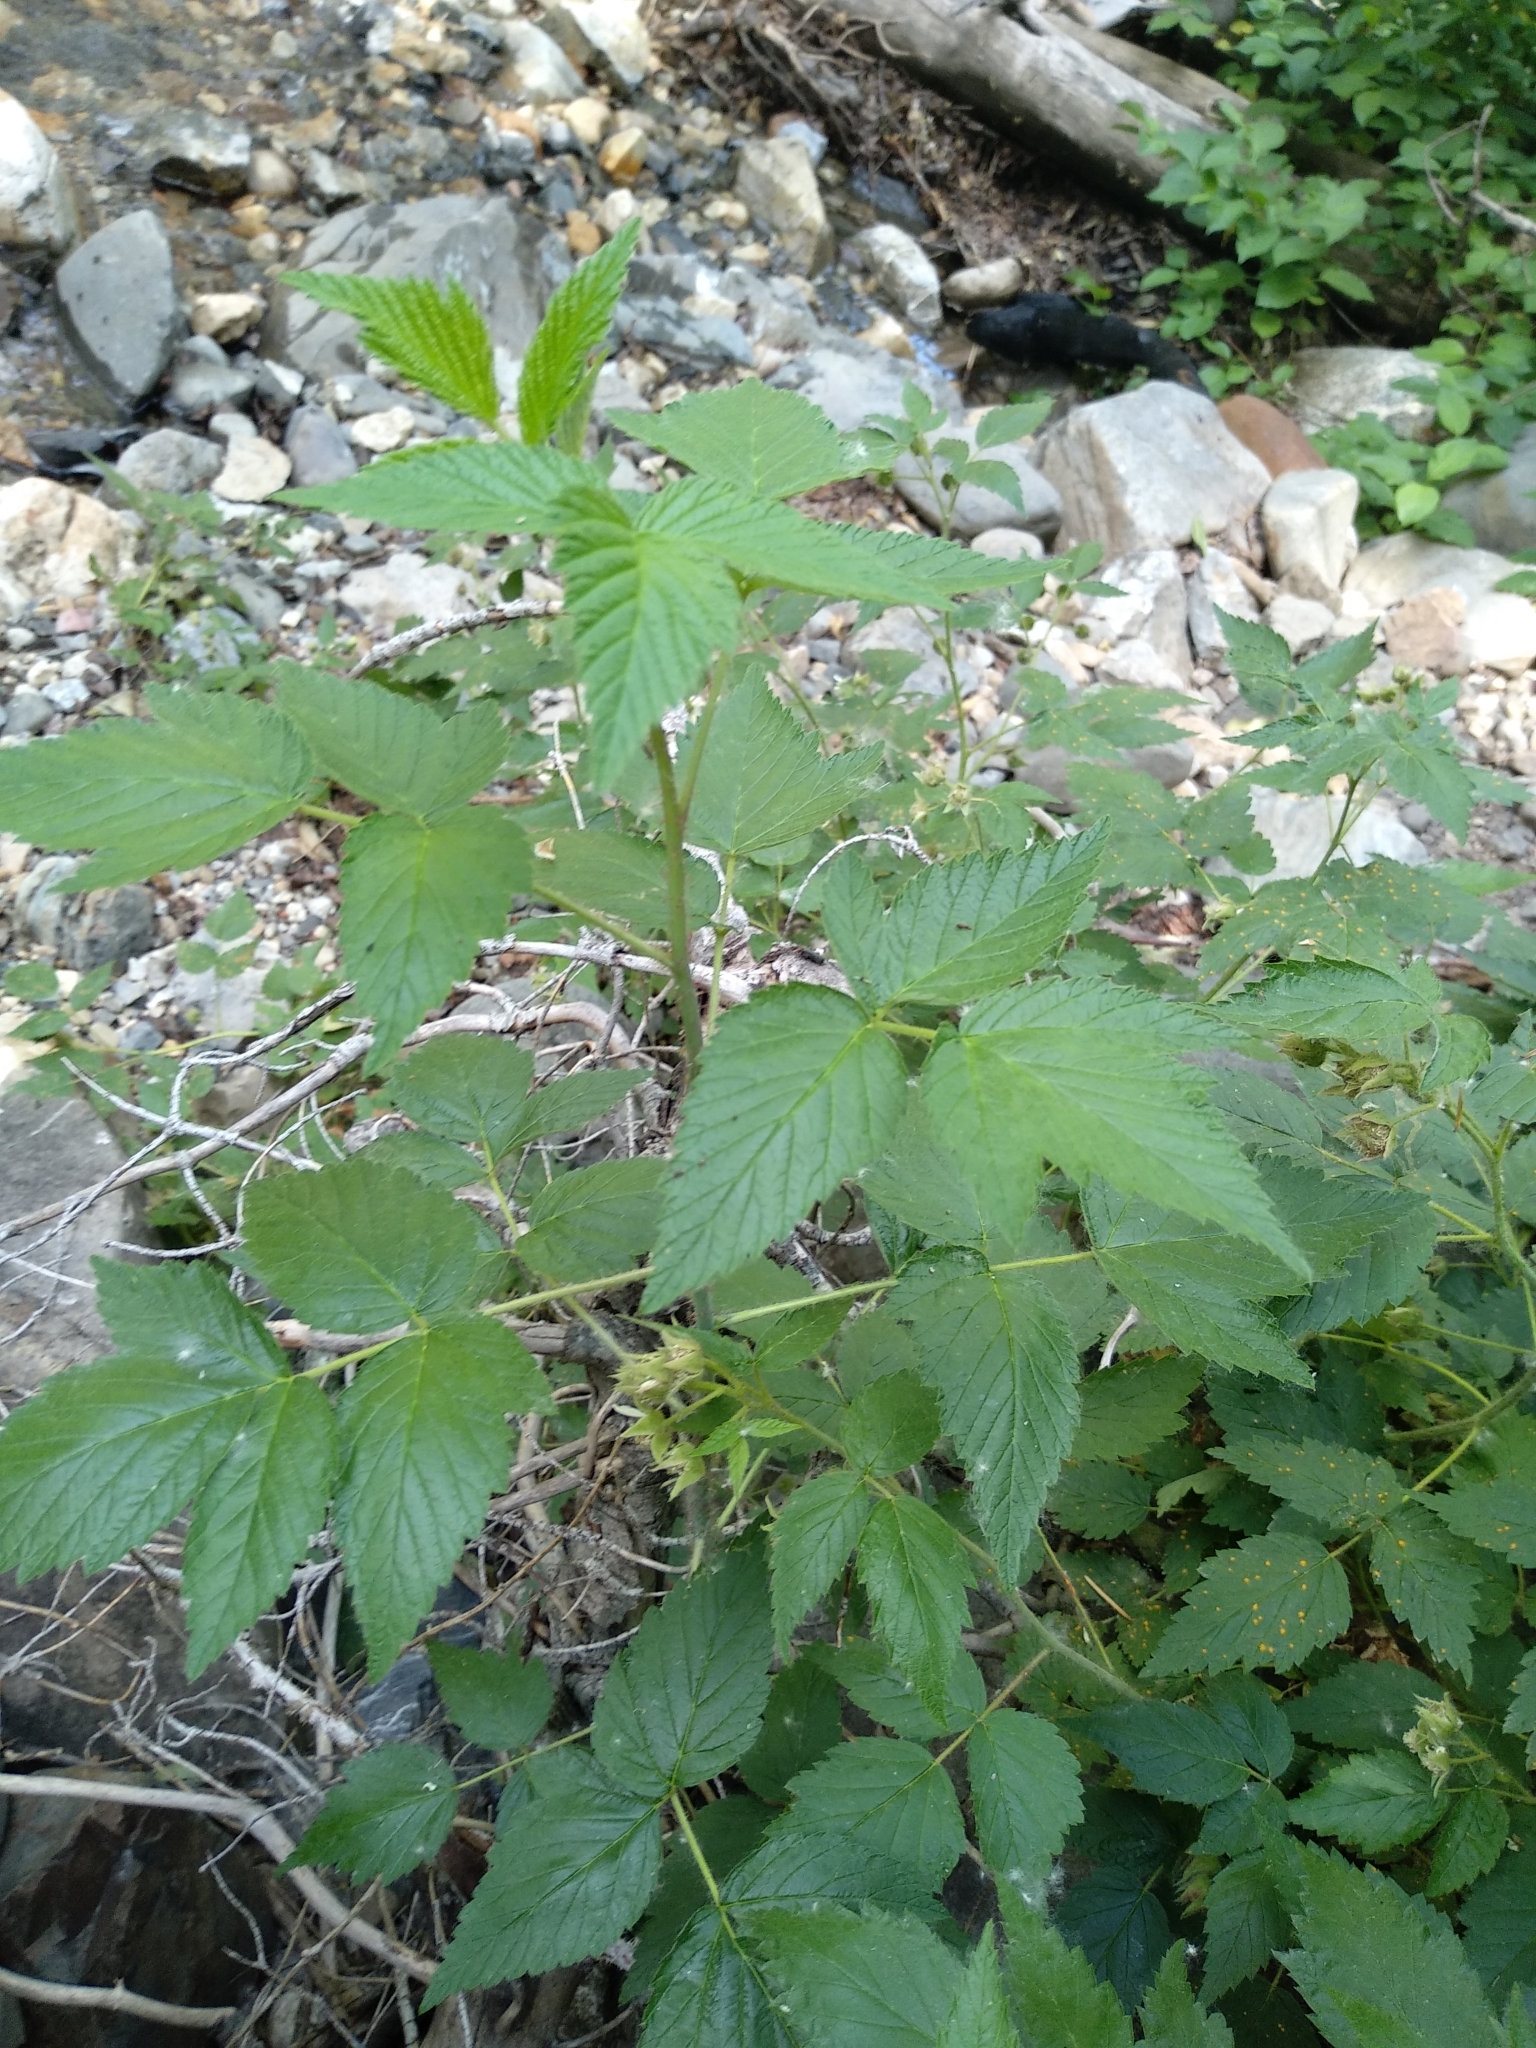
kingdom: Plantae
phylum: Tracheophyta
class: Magnoliopsida
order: Rosales
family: Rosaceae
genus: Rubus
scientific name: Rubus idaeus
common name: Raspberry
